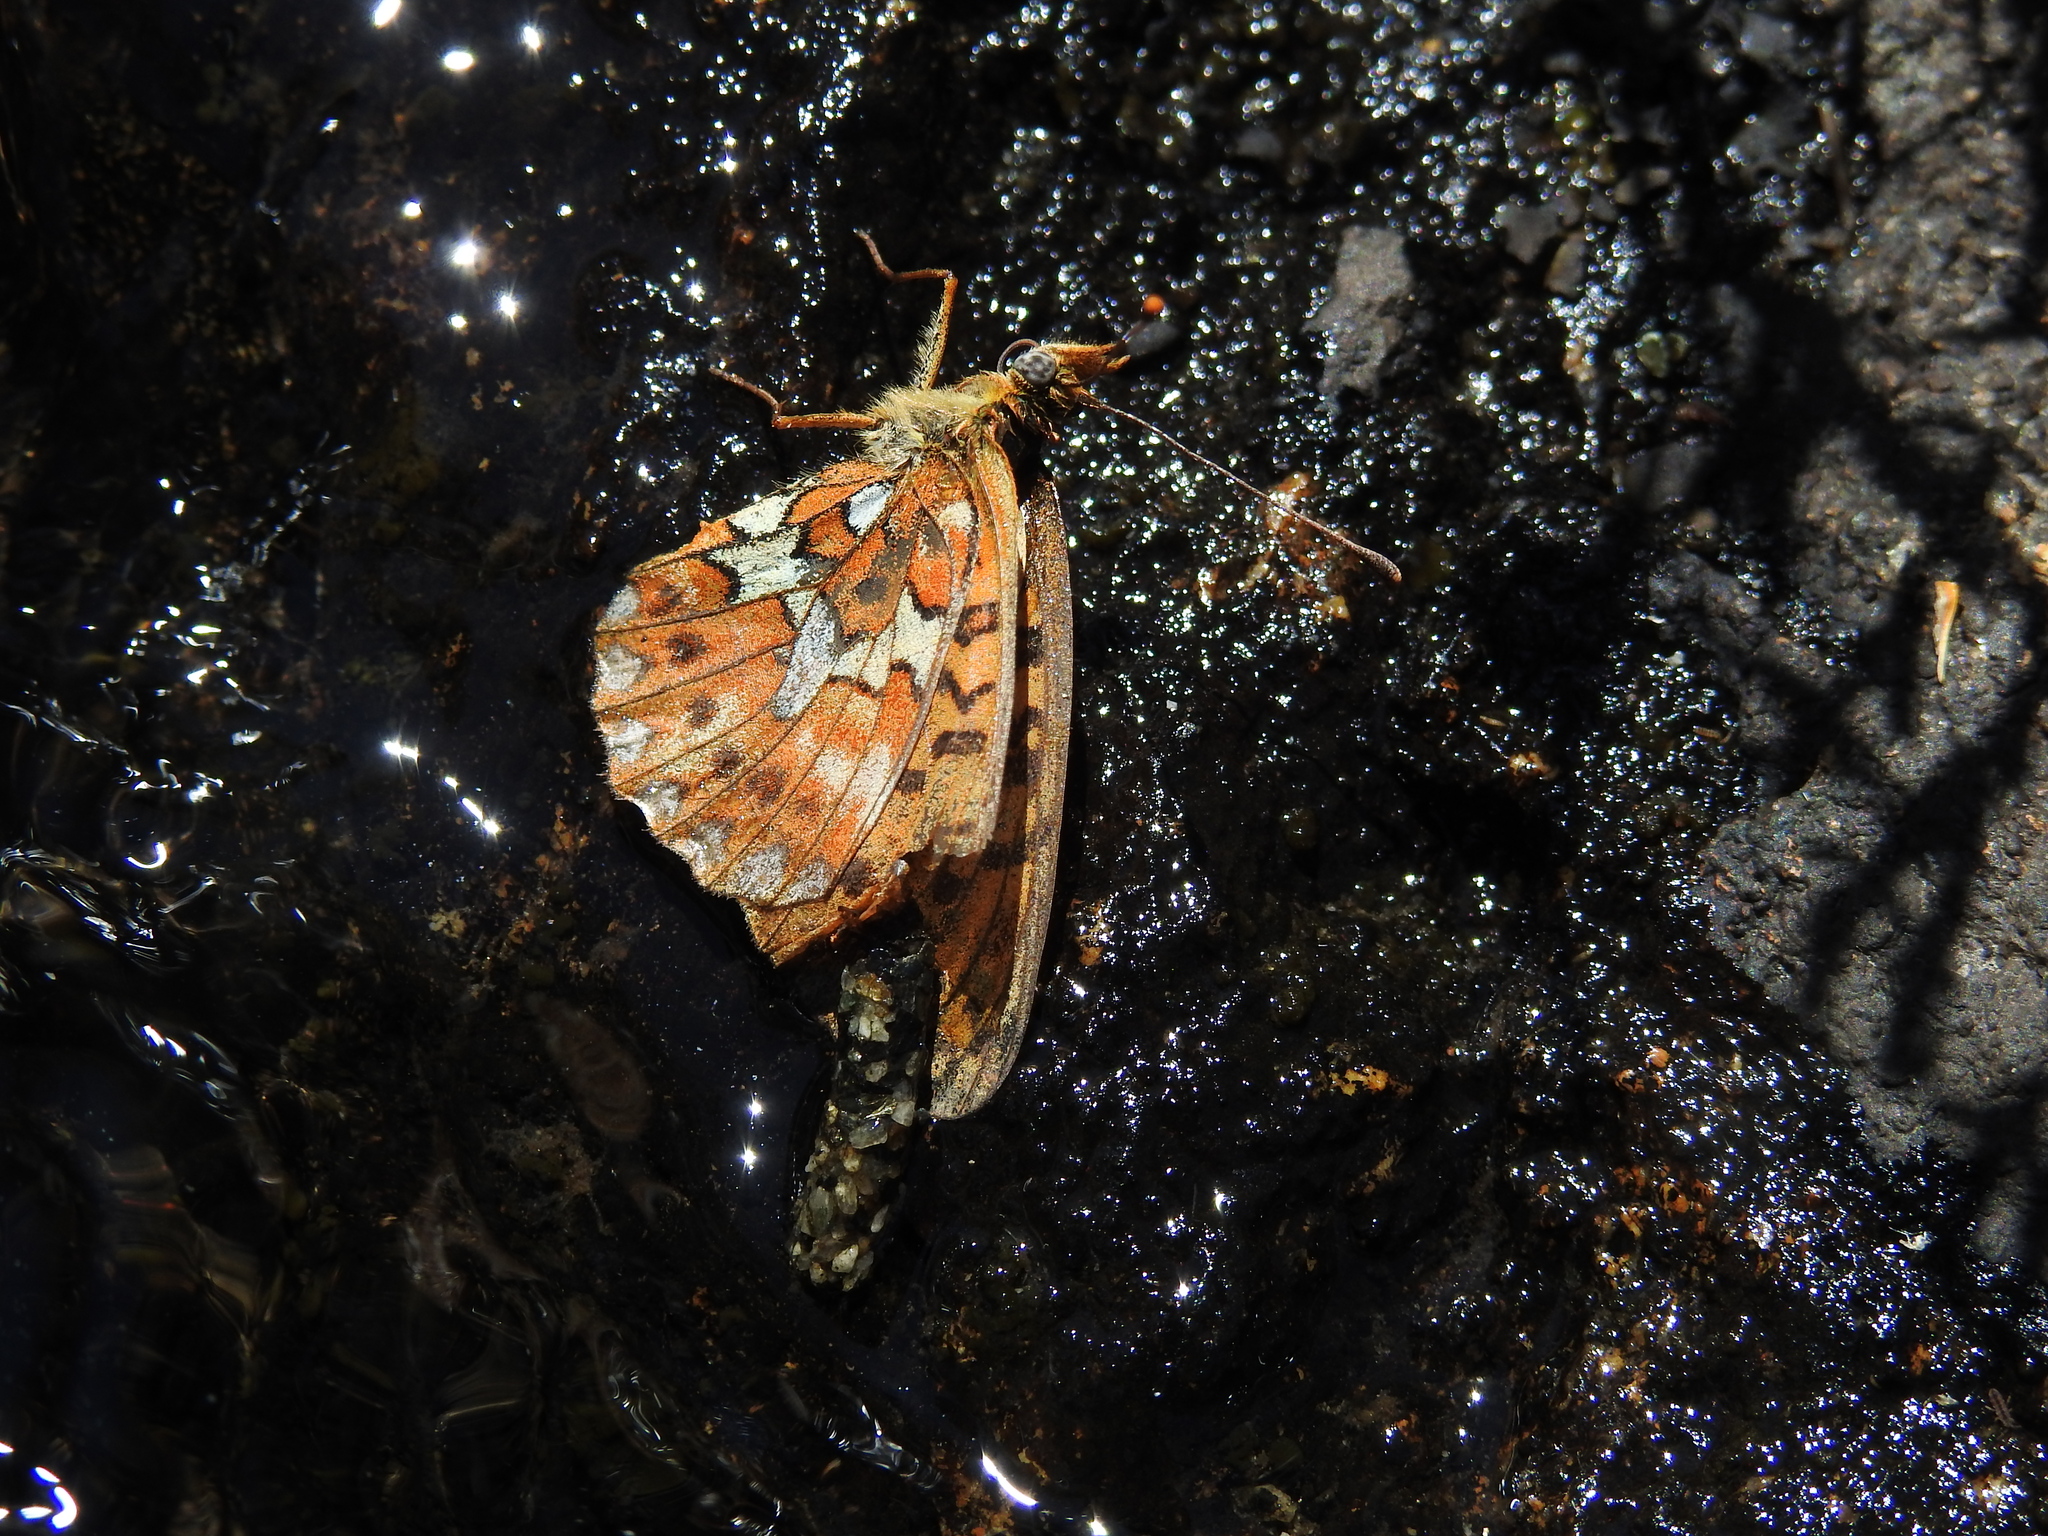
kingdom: Animalia
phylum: Arthropoda
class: Insecta
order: Lepidoptera
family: Nymphalidae
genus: Clossiana
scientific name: Clossiana euphrosyne
